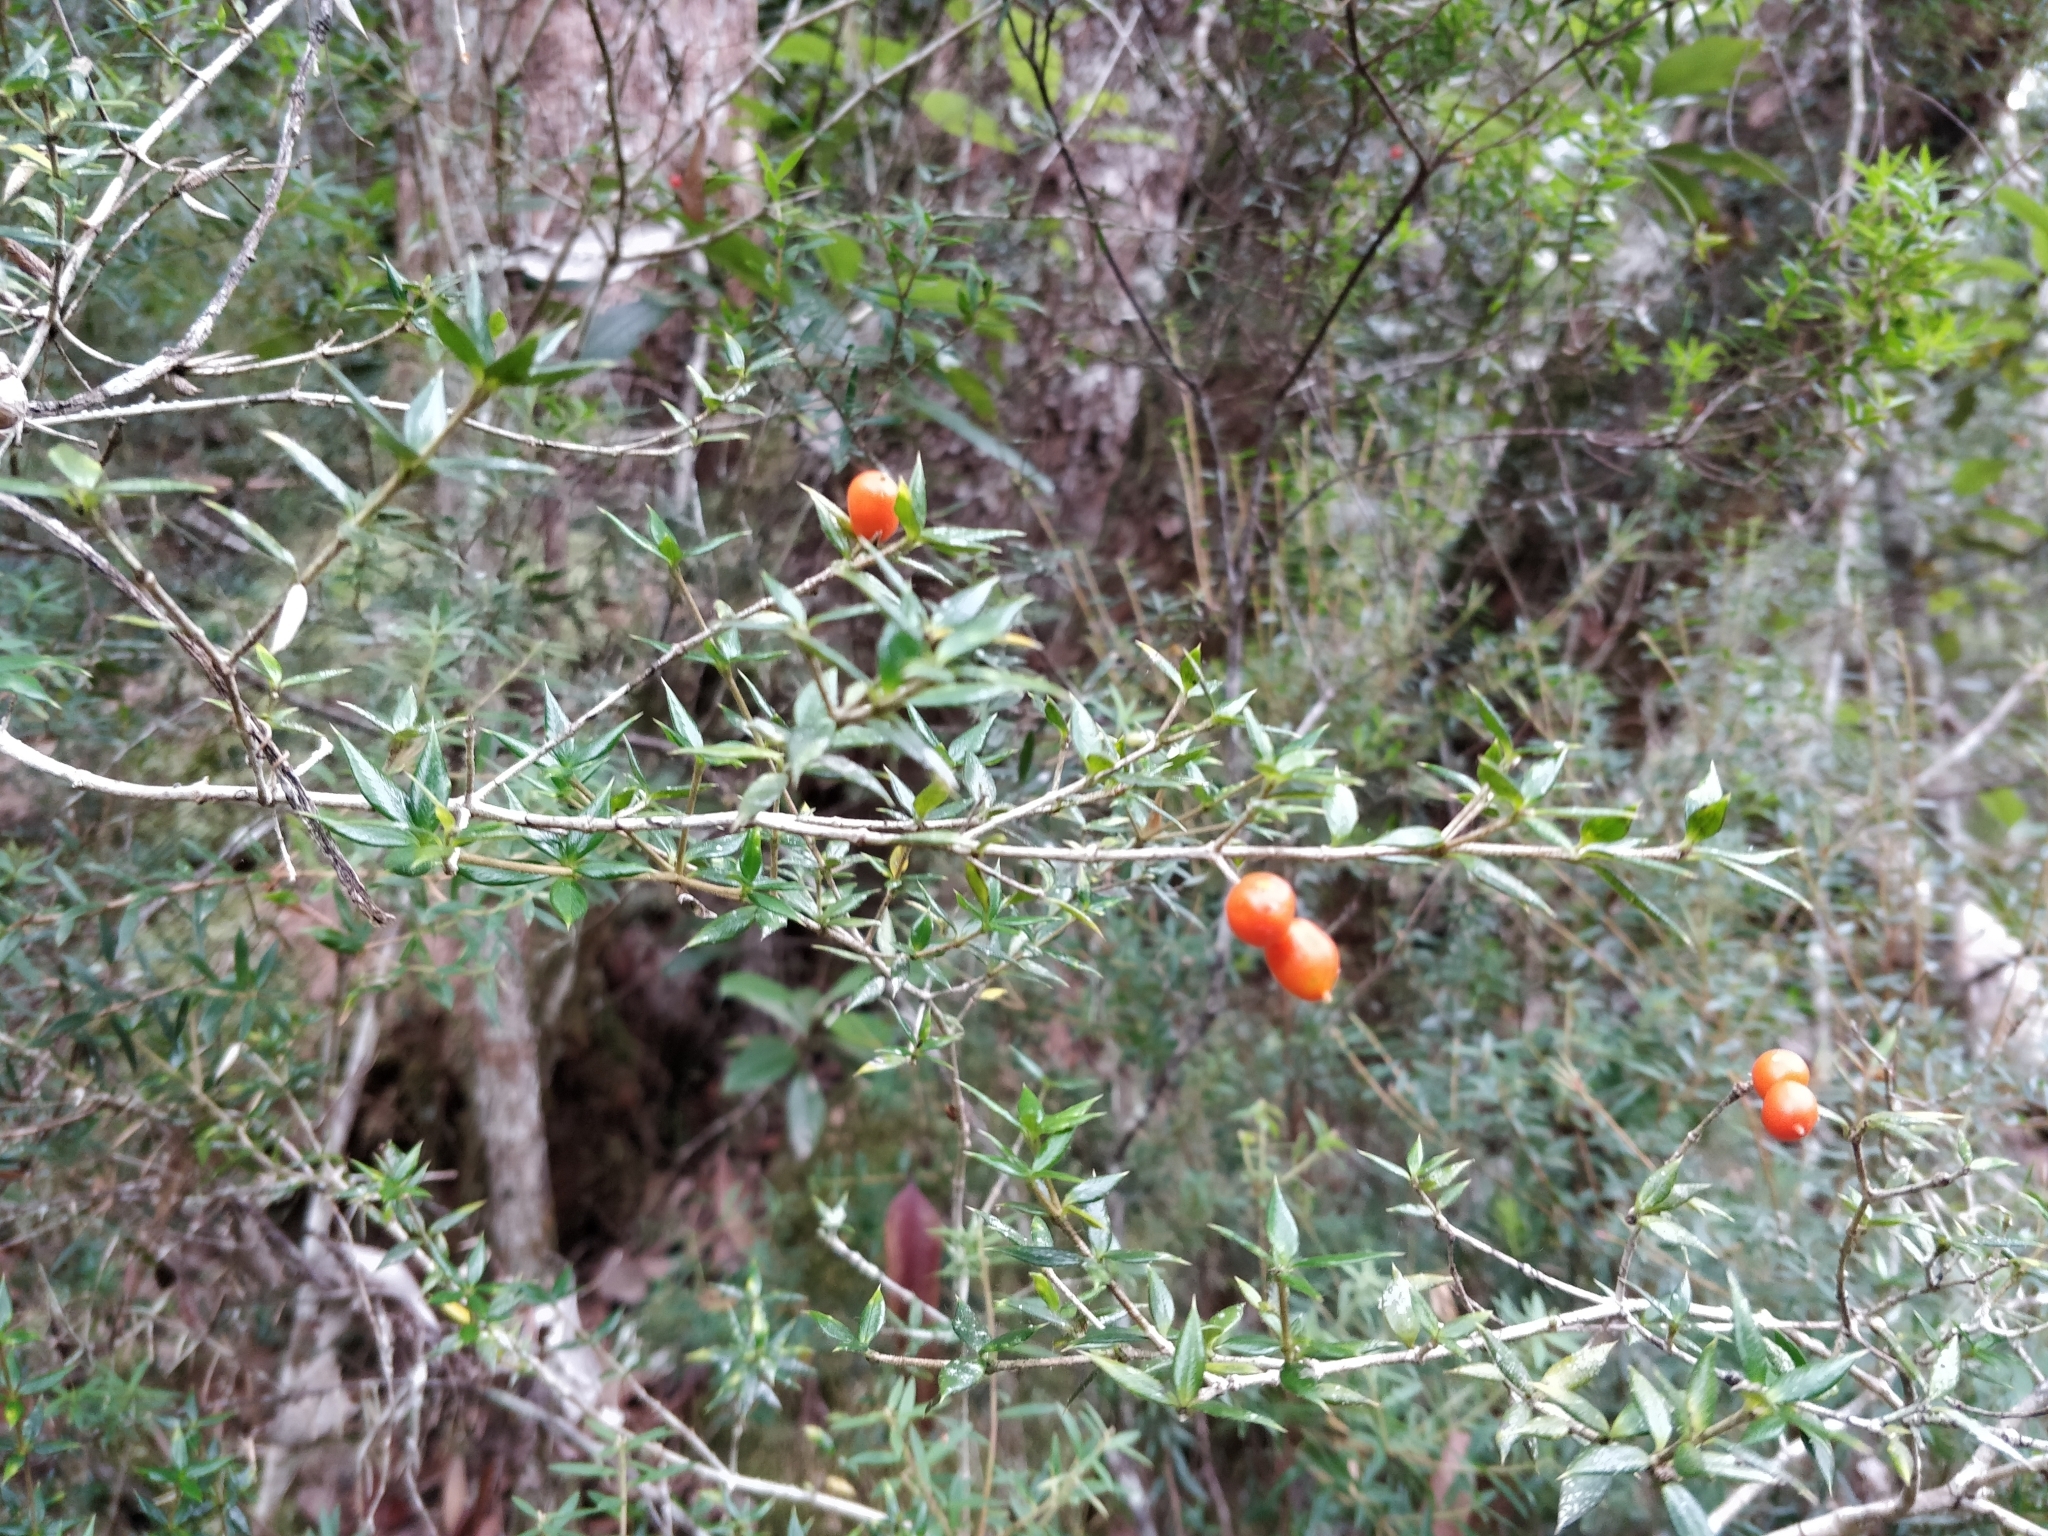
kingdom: Plantae
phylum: Tracheophyta
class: Magnoliopsida
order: Gentianales
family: Apocynaceae
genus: Alyxia
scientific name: Alyxia ruscifolia
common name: Chainfruit
